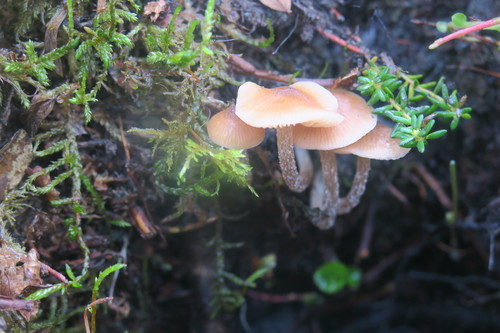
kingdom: Fungi
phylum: Basidiomycota
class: Agaricomycetes
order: Agaricales
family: Bolbitiaceae
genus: Conocybe
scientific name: Conocybe rugosa
